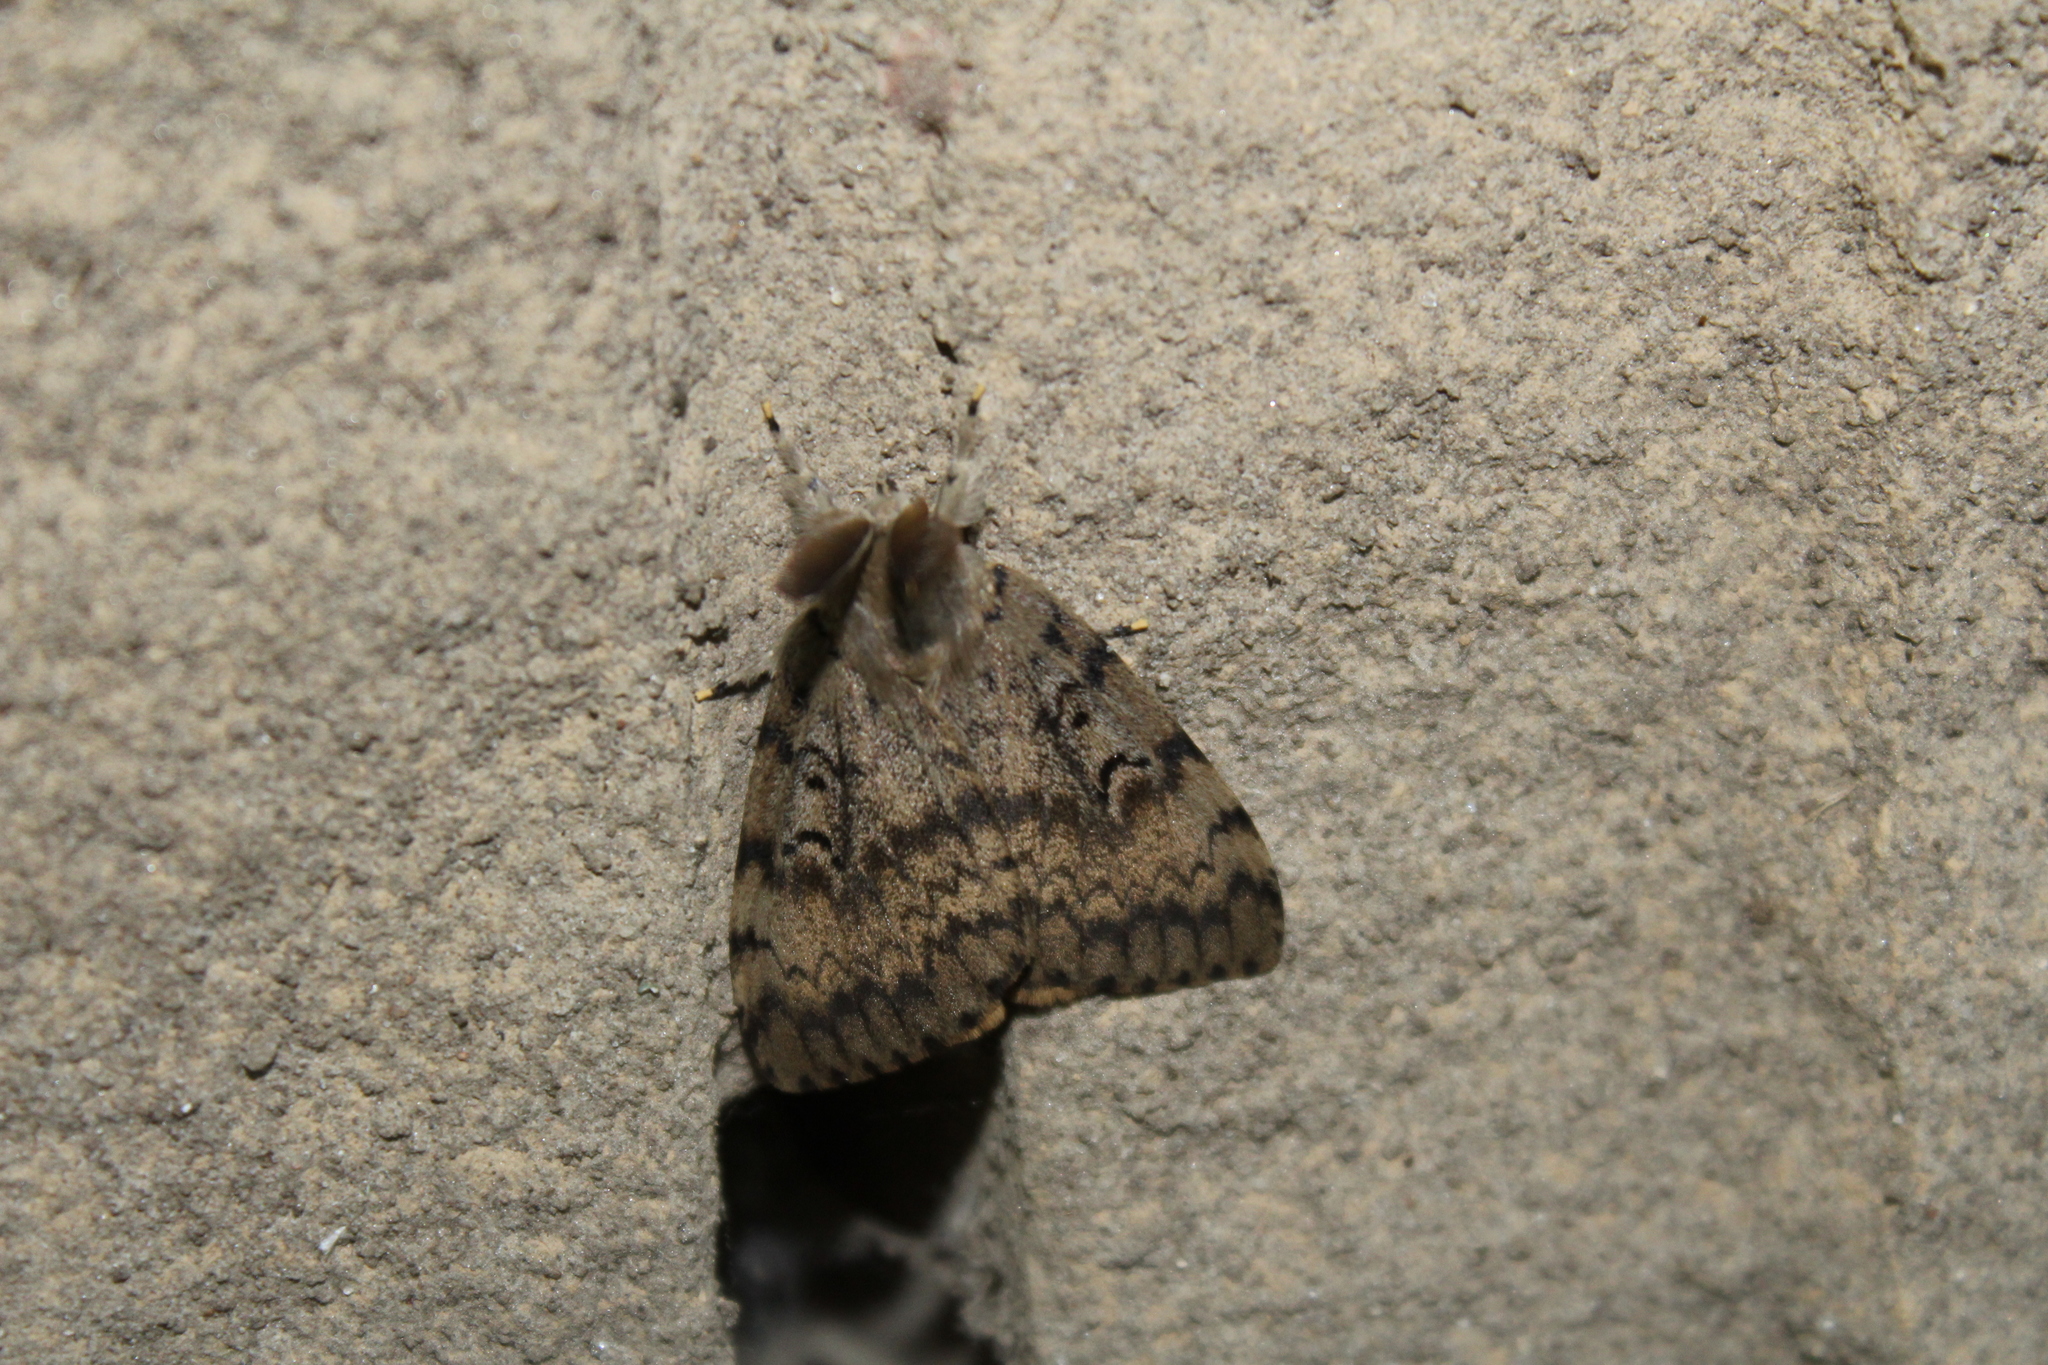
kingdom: Animalia
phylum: Arthropoda
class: Insecta
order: Lepidoptera
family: Erebidae
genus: Lymantria
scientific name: Lymantria dispar
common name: Gypsy moth
